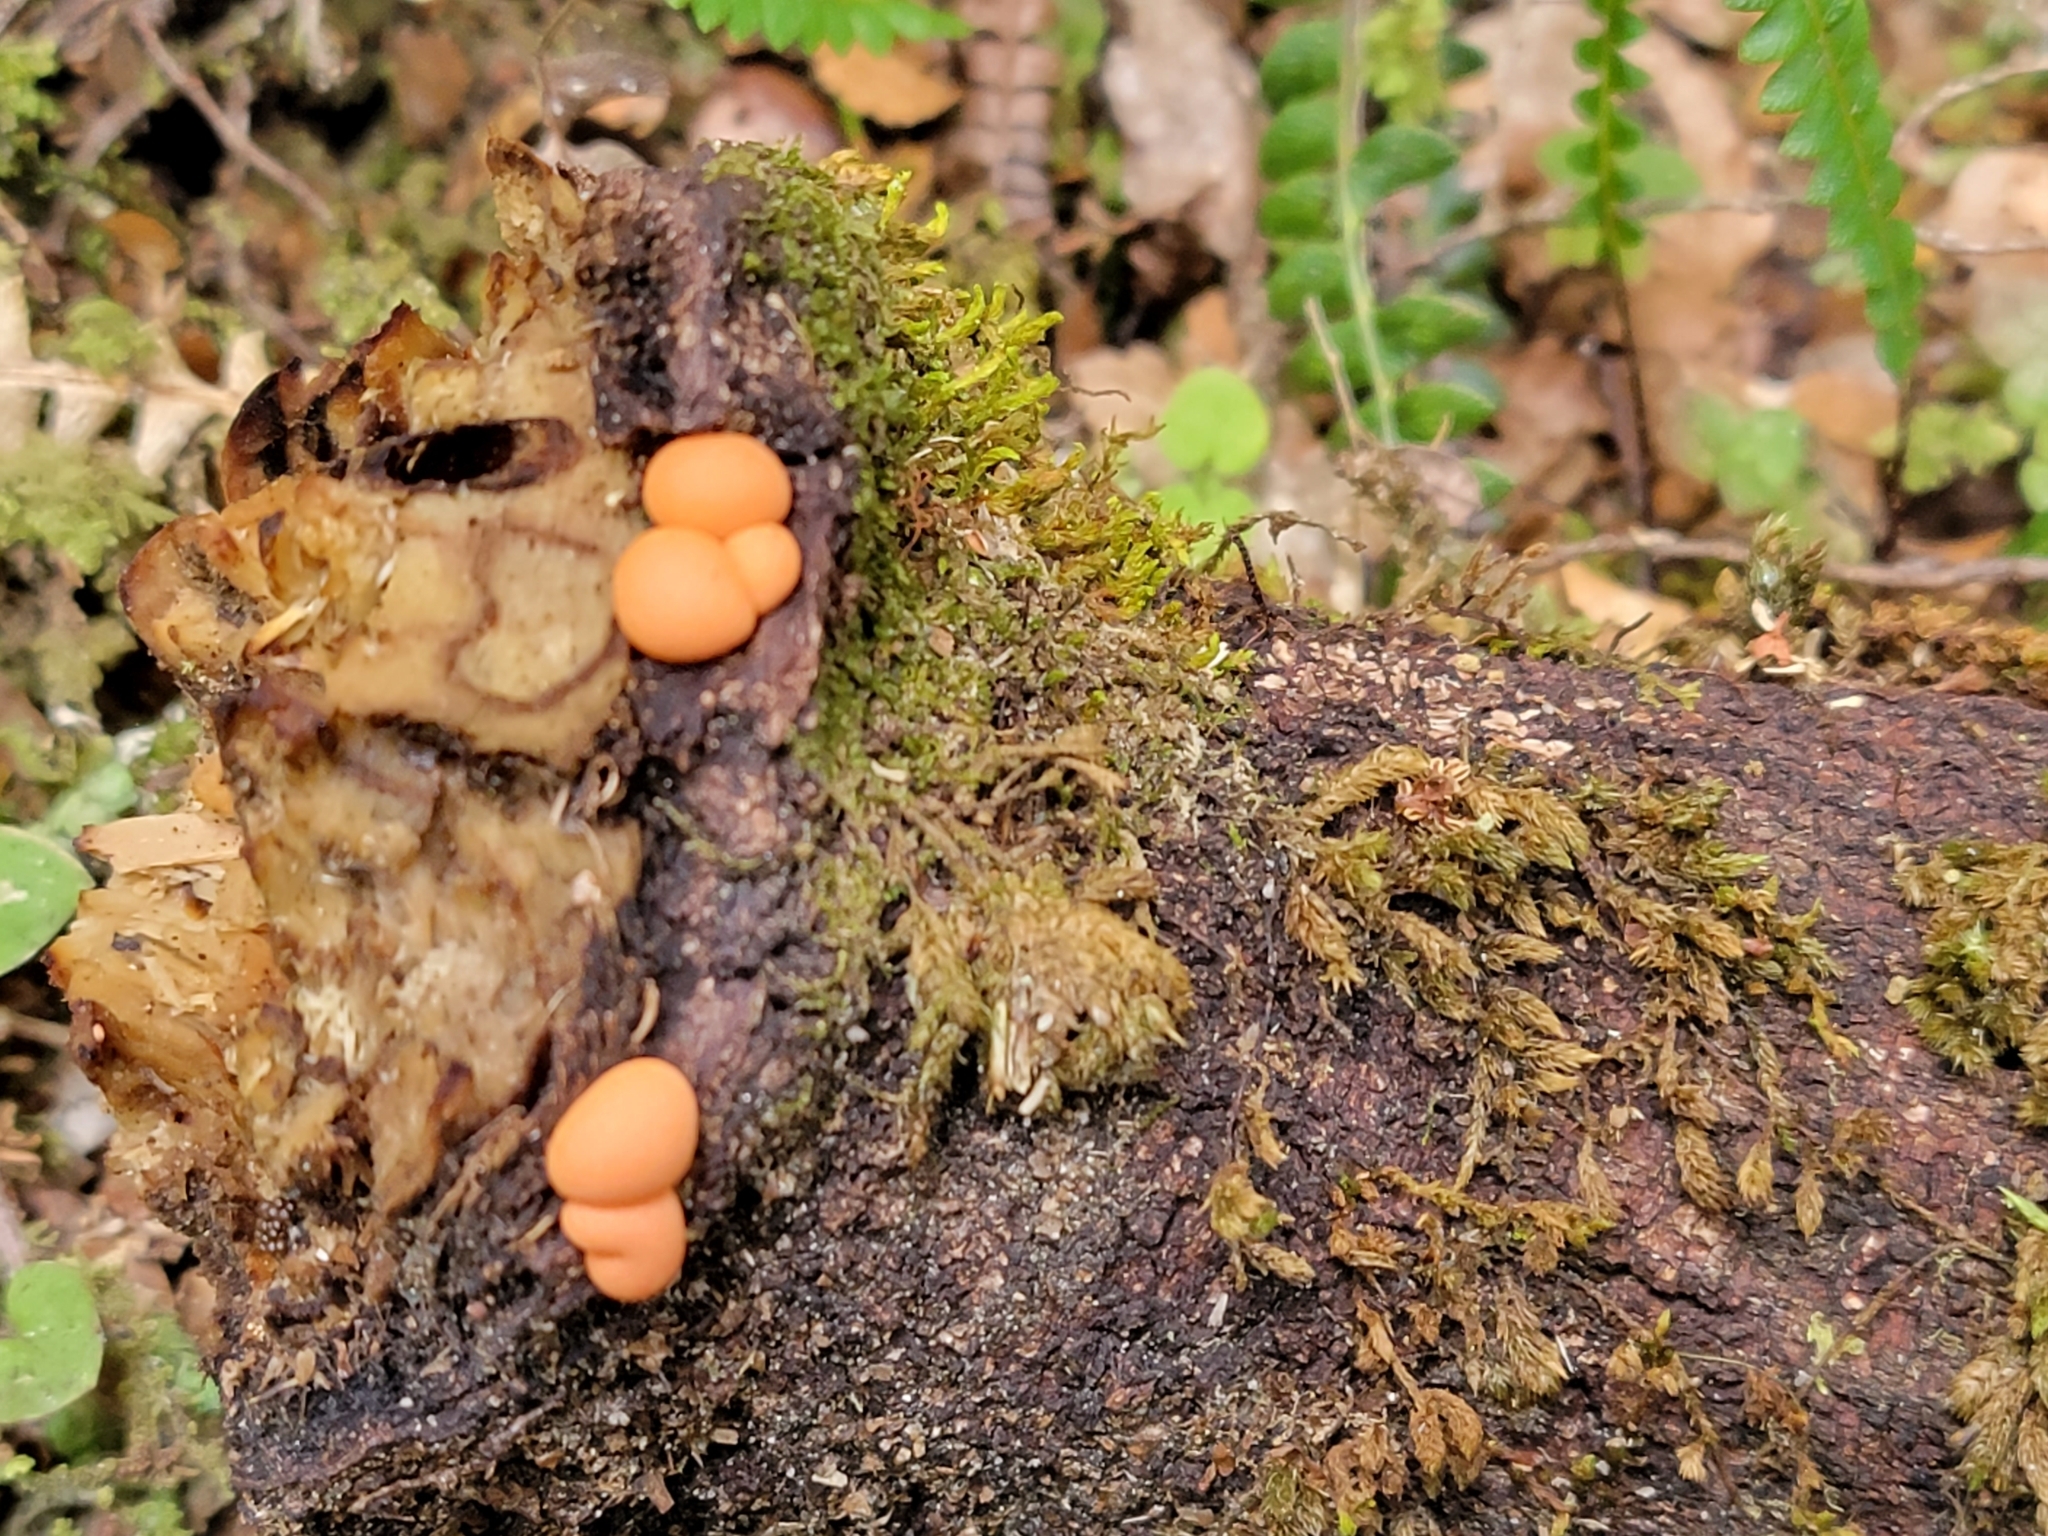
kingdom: Protozoa
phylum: Mycetozoa
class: Myxomycetes
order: Cribrariales
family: Tubiferaceae
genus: Lycogala
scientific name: Lycogala epidendrum
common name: Wolf's milk
